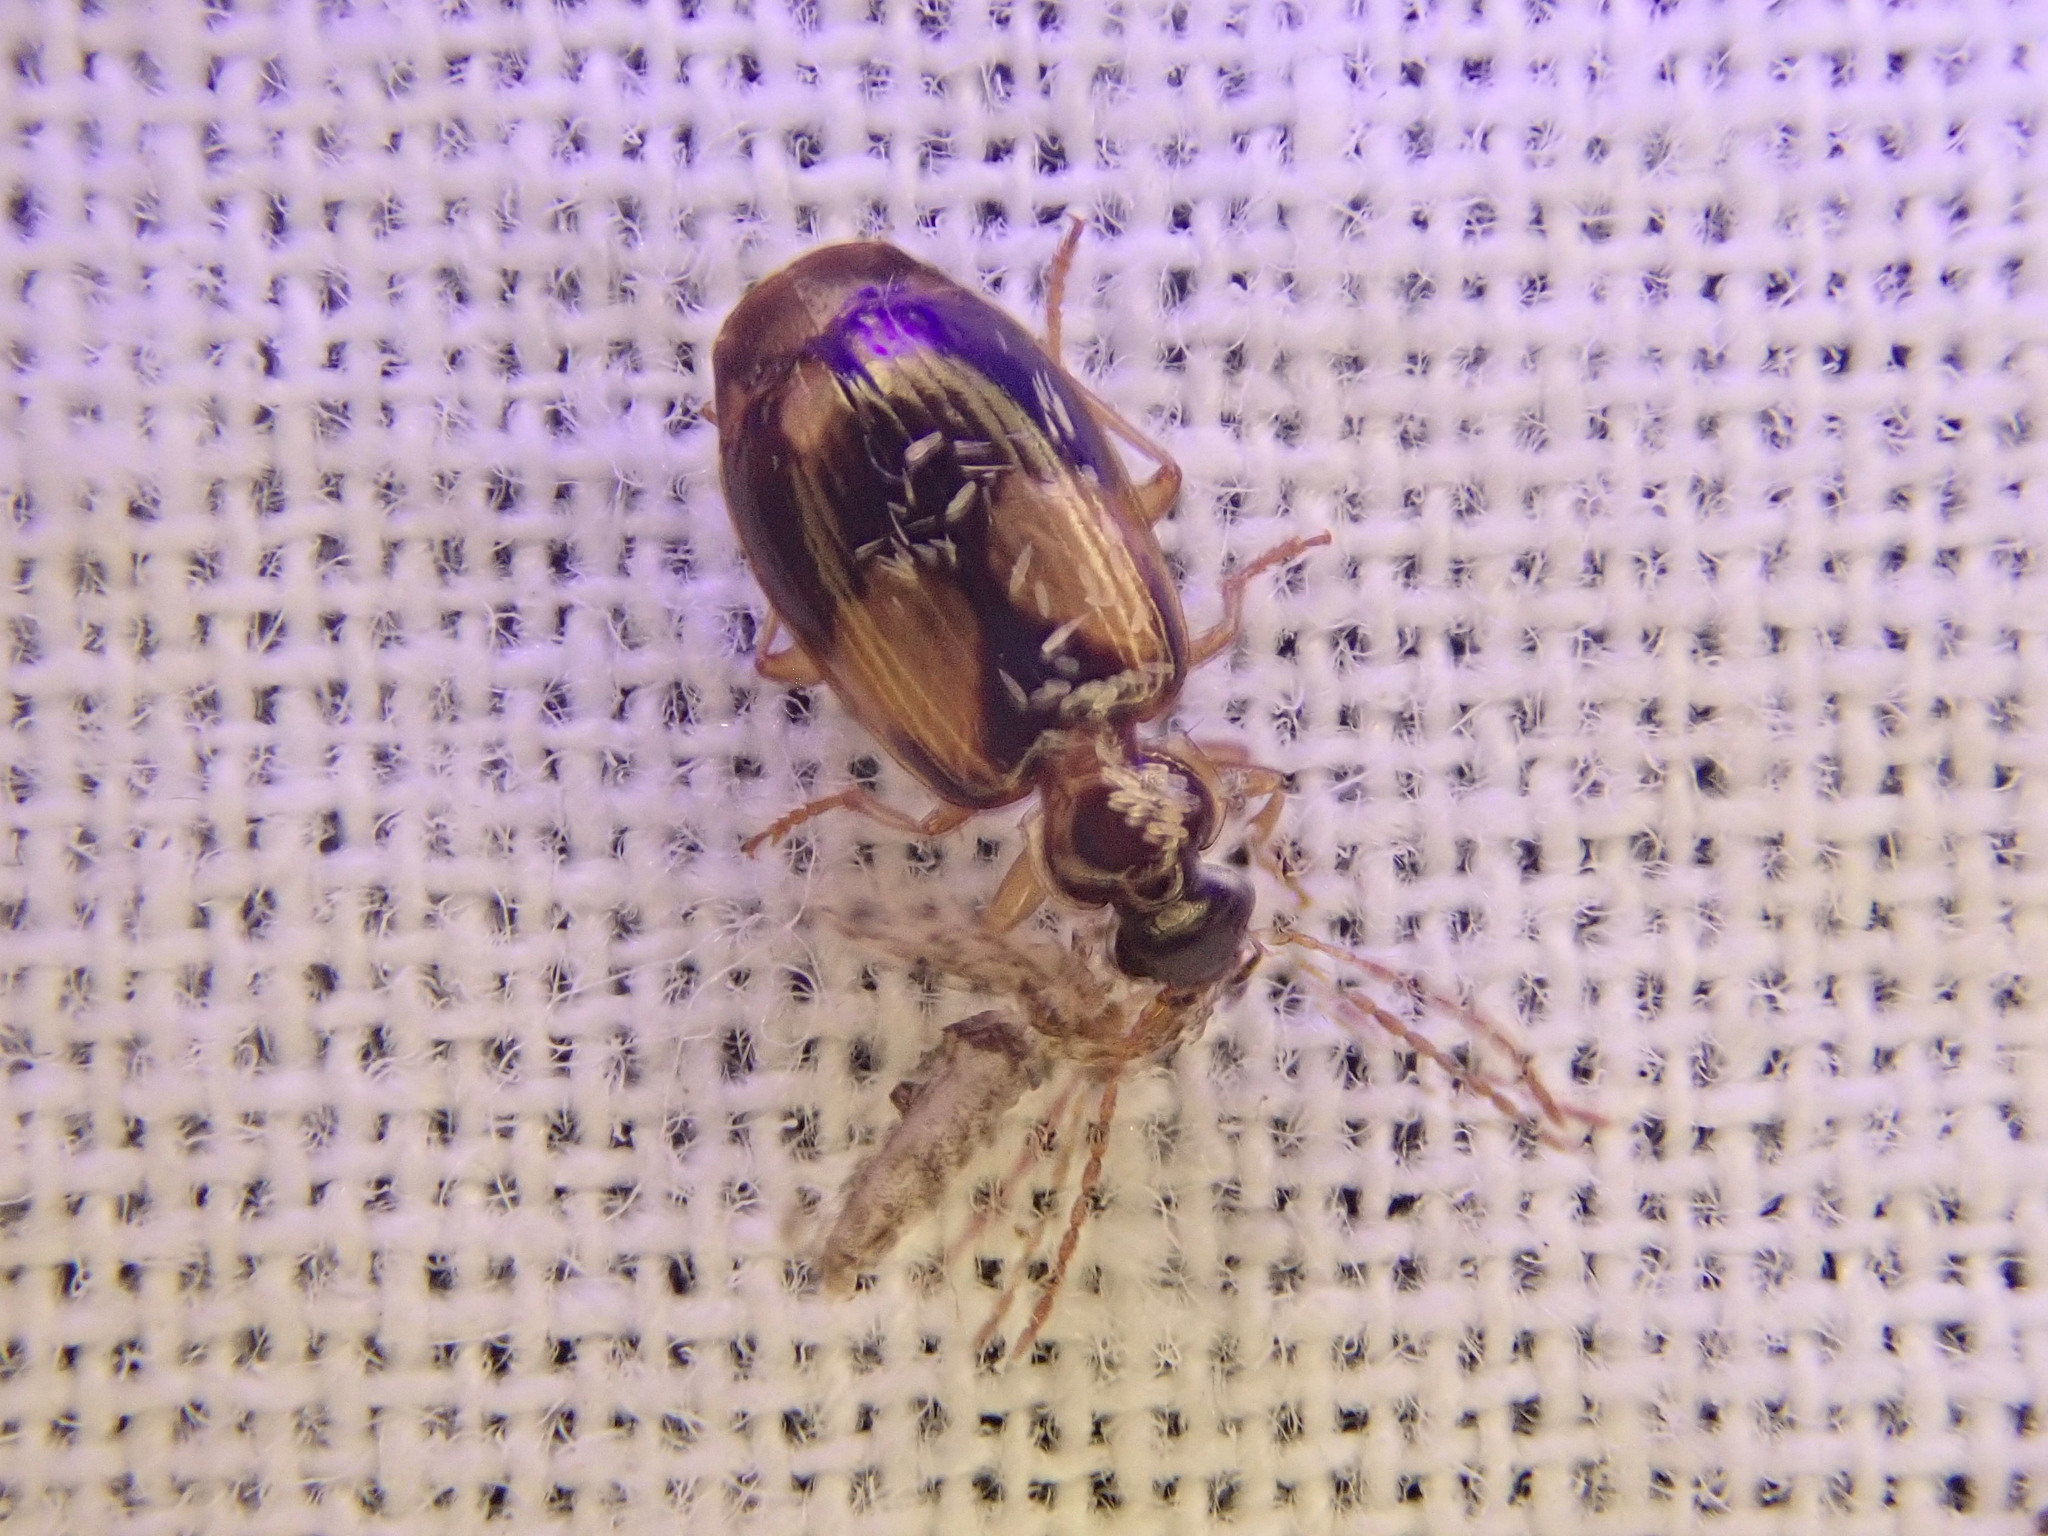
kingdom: Animalia
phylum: Arthropoda
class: Insecta
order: Coleoptera
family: Carabidae
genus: Lebia
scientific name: Lebia ornata
